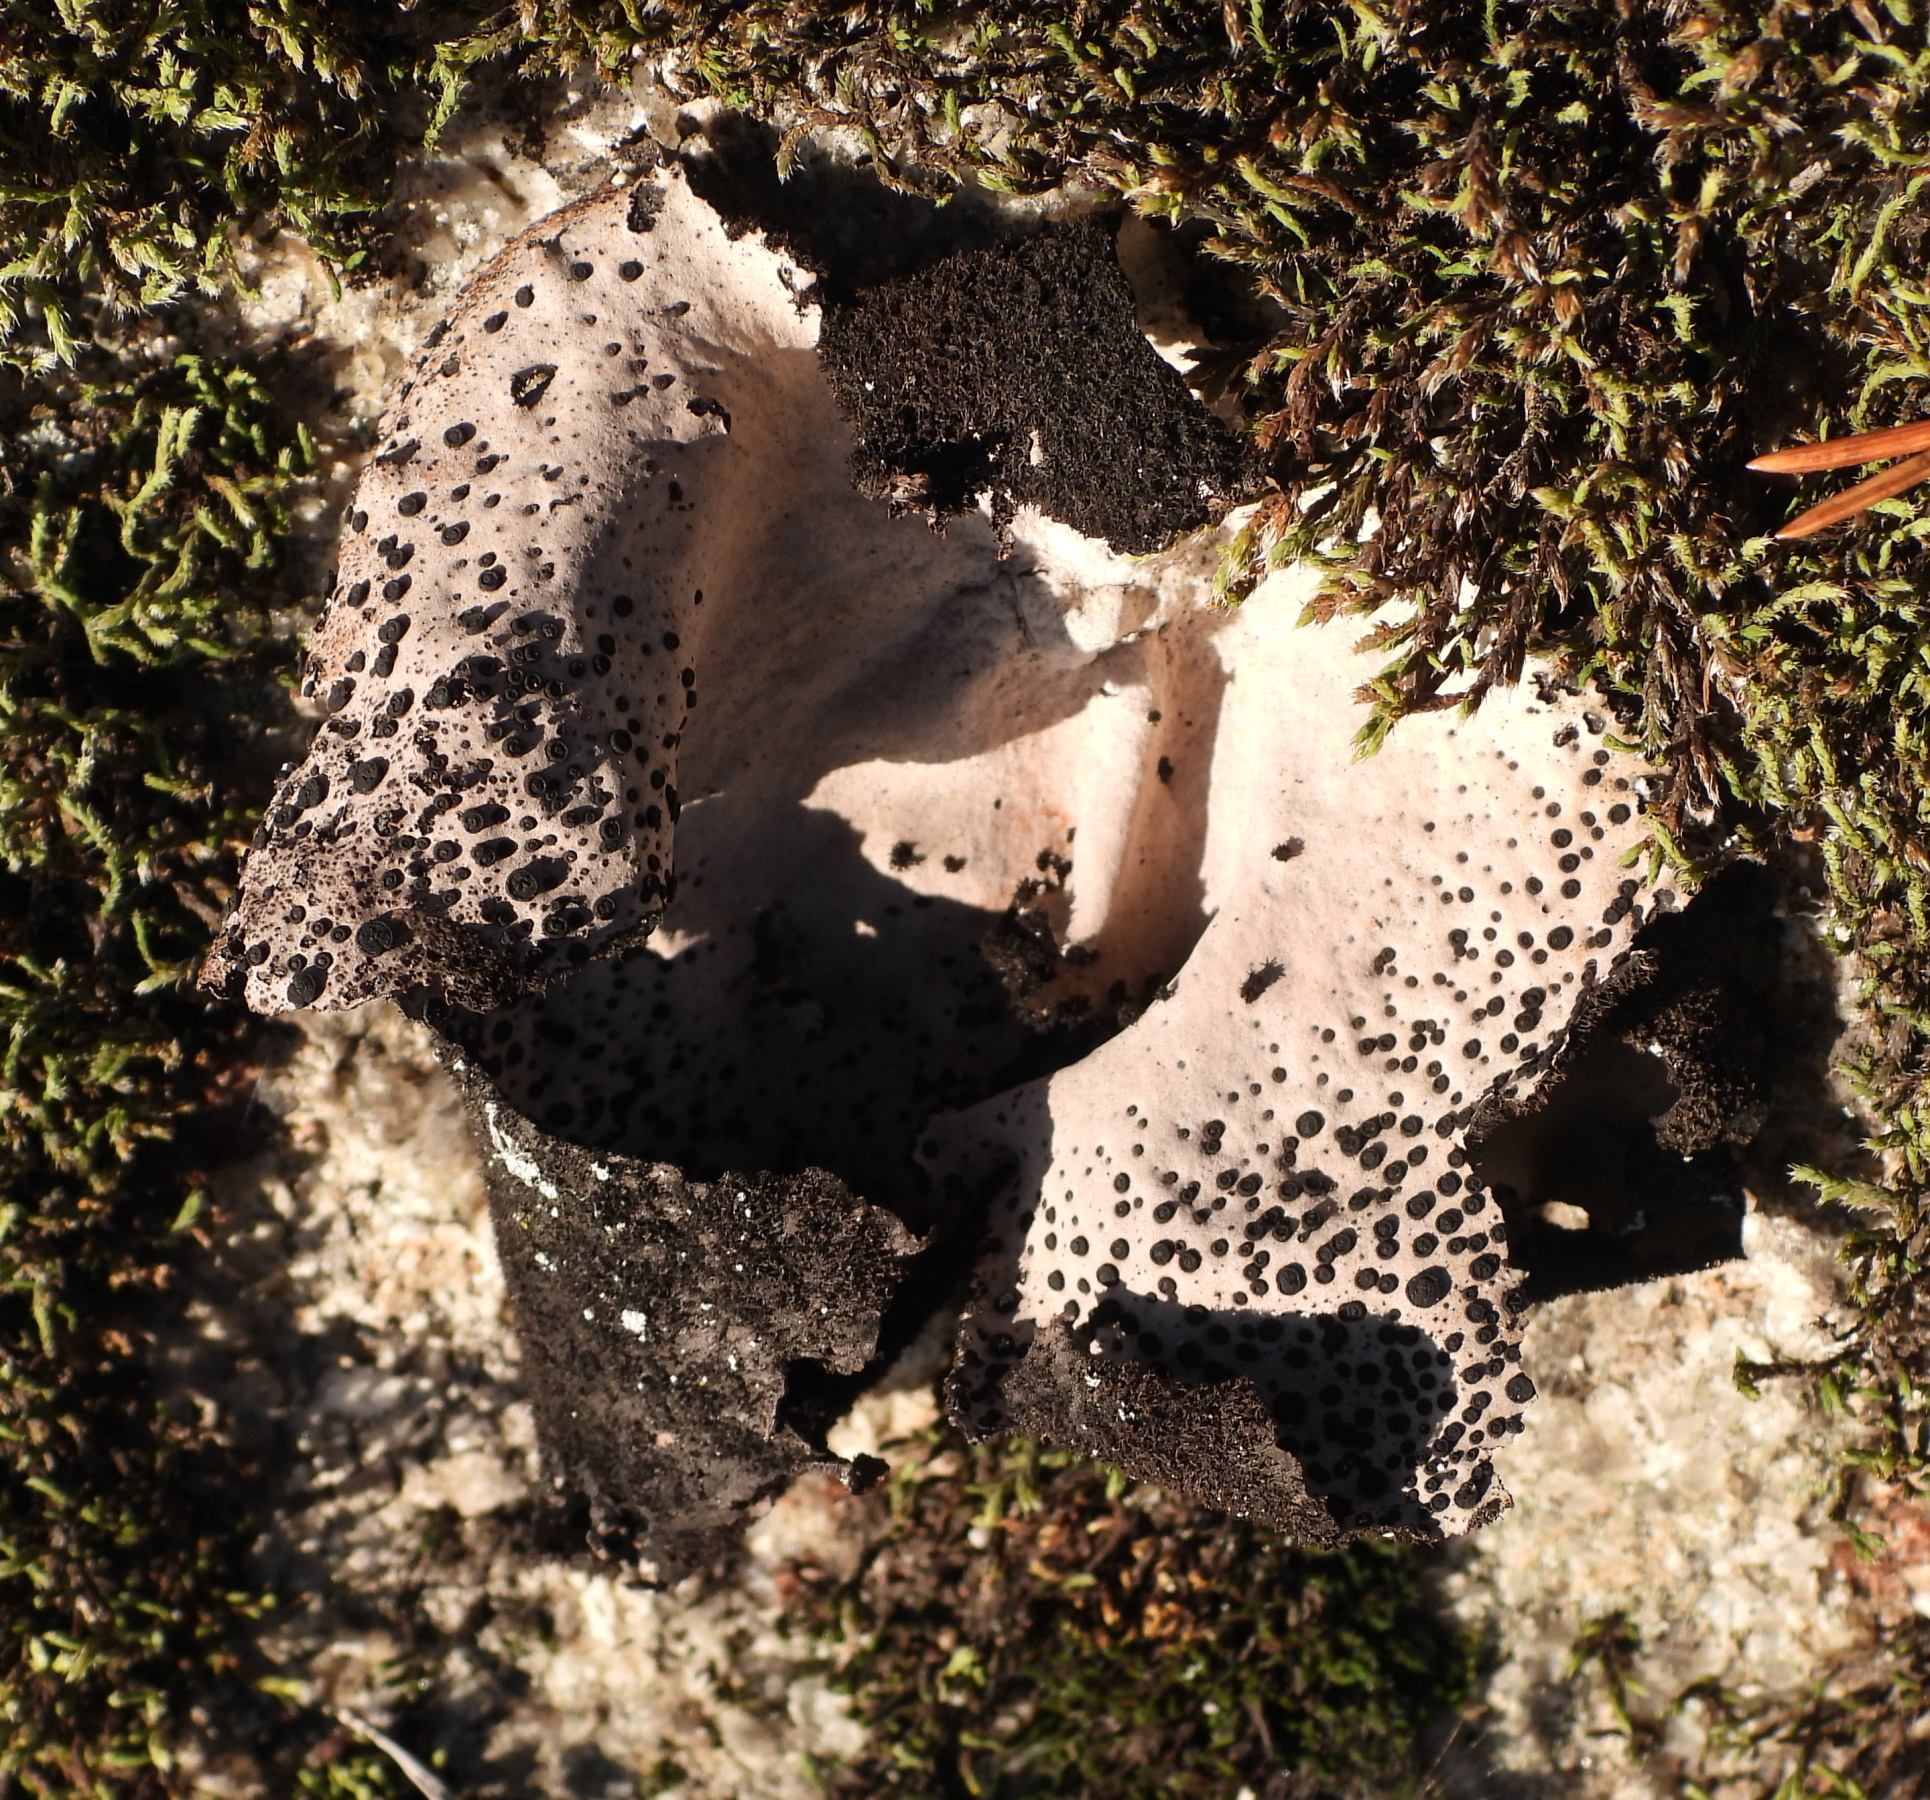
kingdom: Fungi
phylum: Ascomycota
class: Lecanoromycetes
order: Umbilicariales
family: Umbilicariaceae
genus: Umbilicaria
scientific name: Umbilicaria spodochroa
